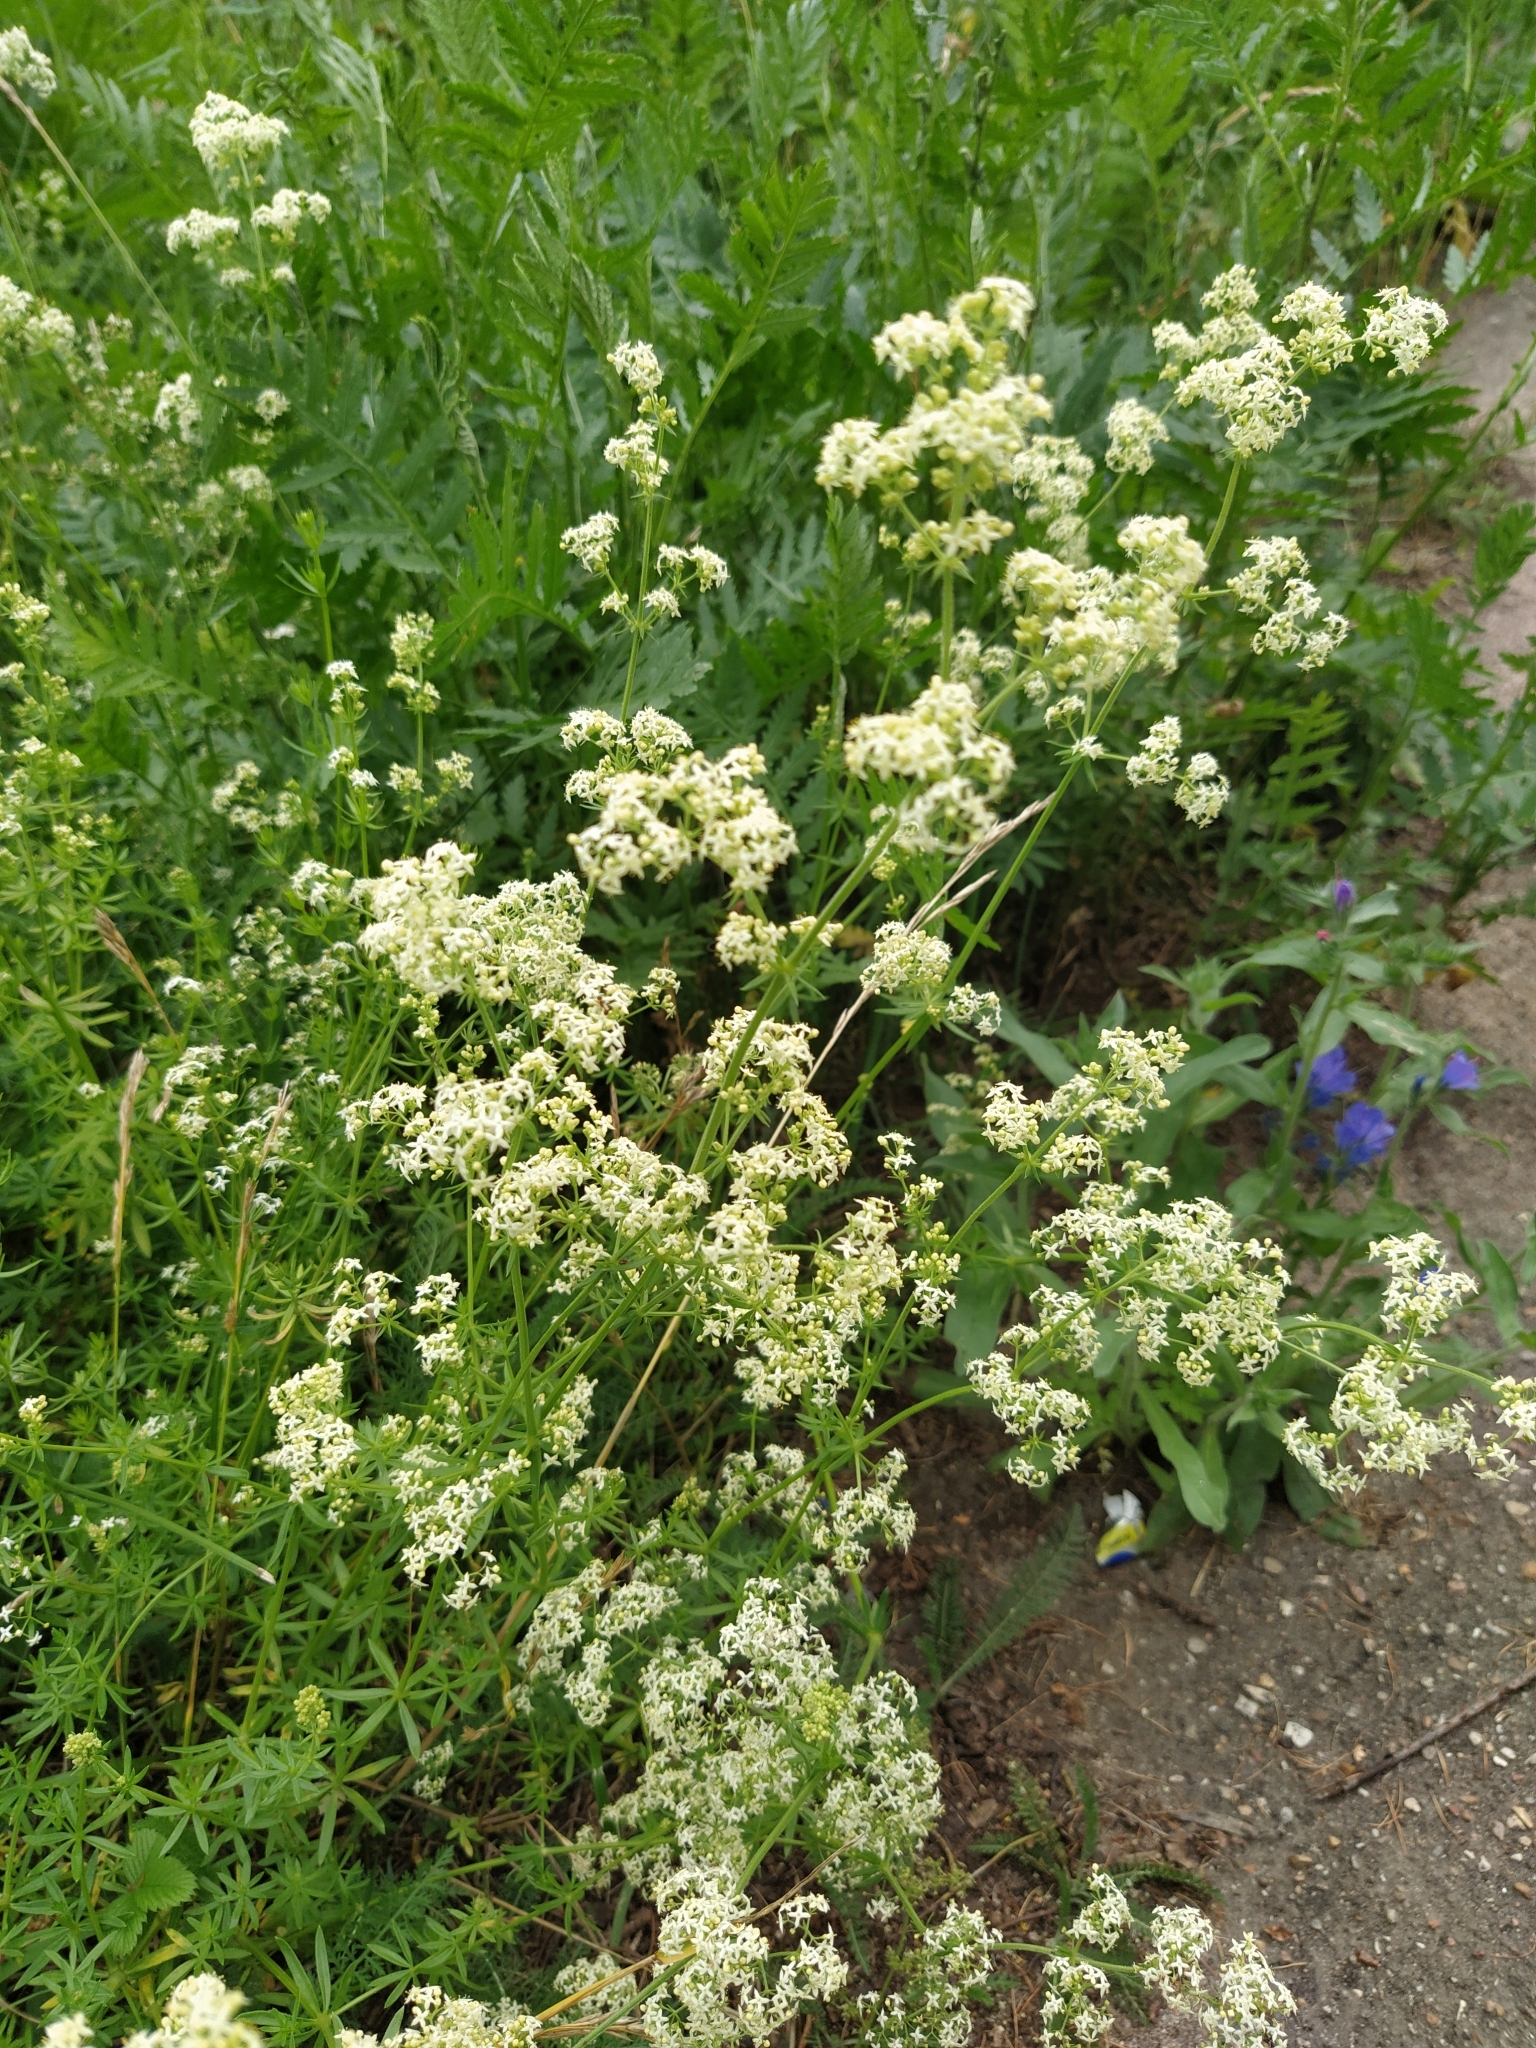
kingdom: Plantae
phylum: Tracheophyta
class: Magnoliopsida
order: Gentianales
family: Rubiaceae
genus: Galium
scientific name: Galium mollugo
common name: Hedge bedstraw
